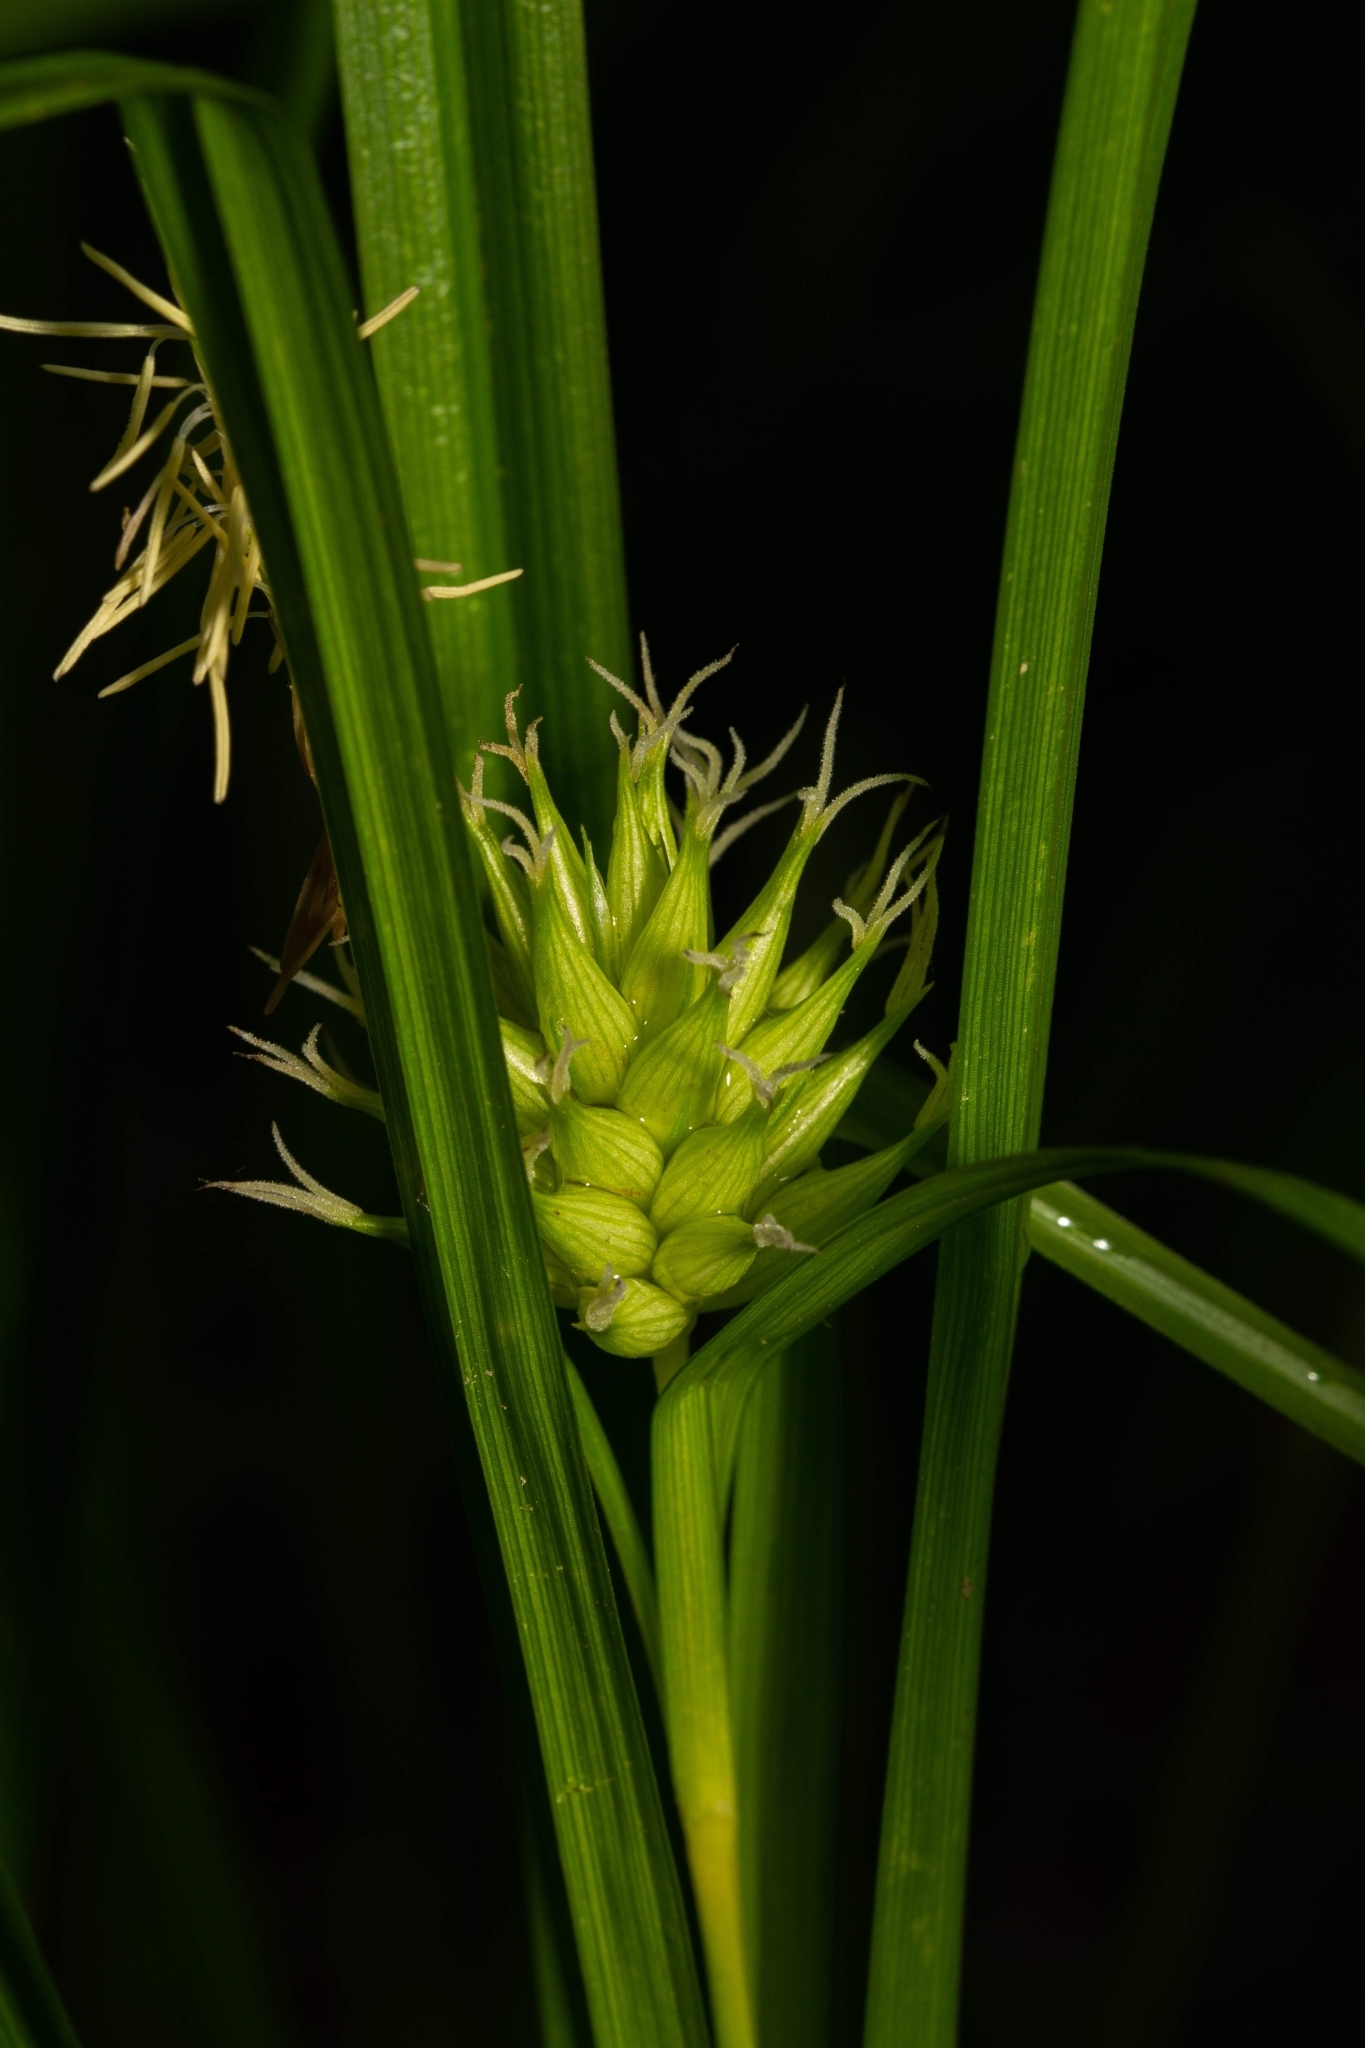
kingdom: Plantae
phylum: Tracheophyta
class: Liliopsida
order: Poales
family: Cyperaceae
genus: Carex
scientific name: Carex grayi
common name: Asa gray's sedge
